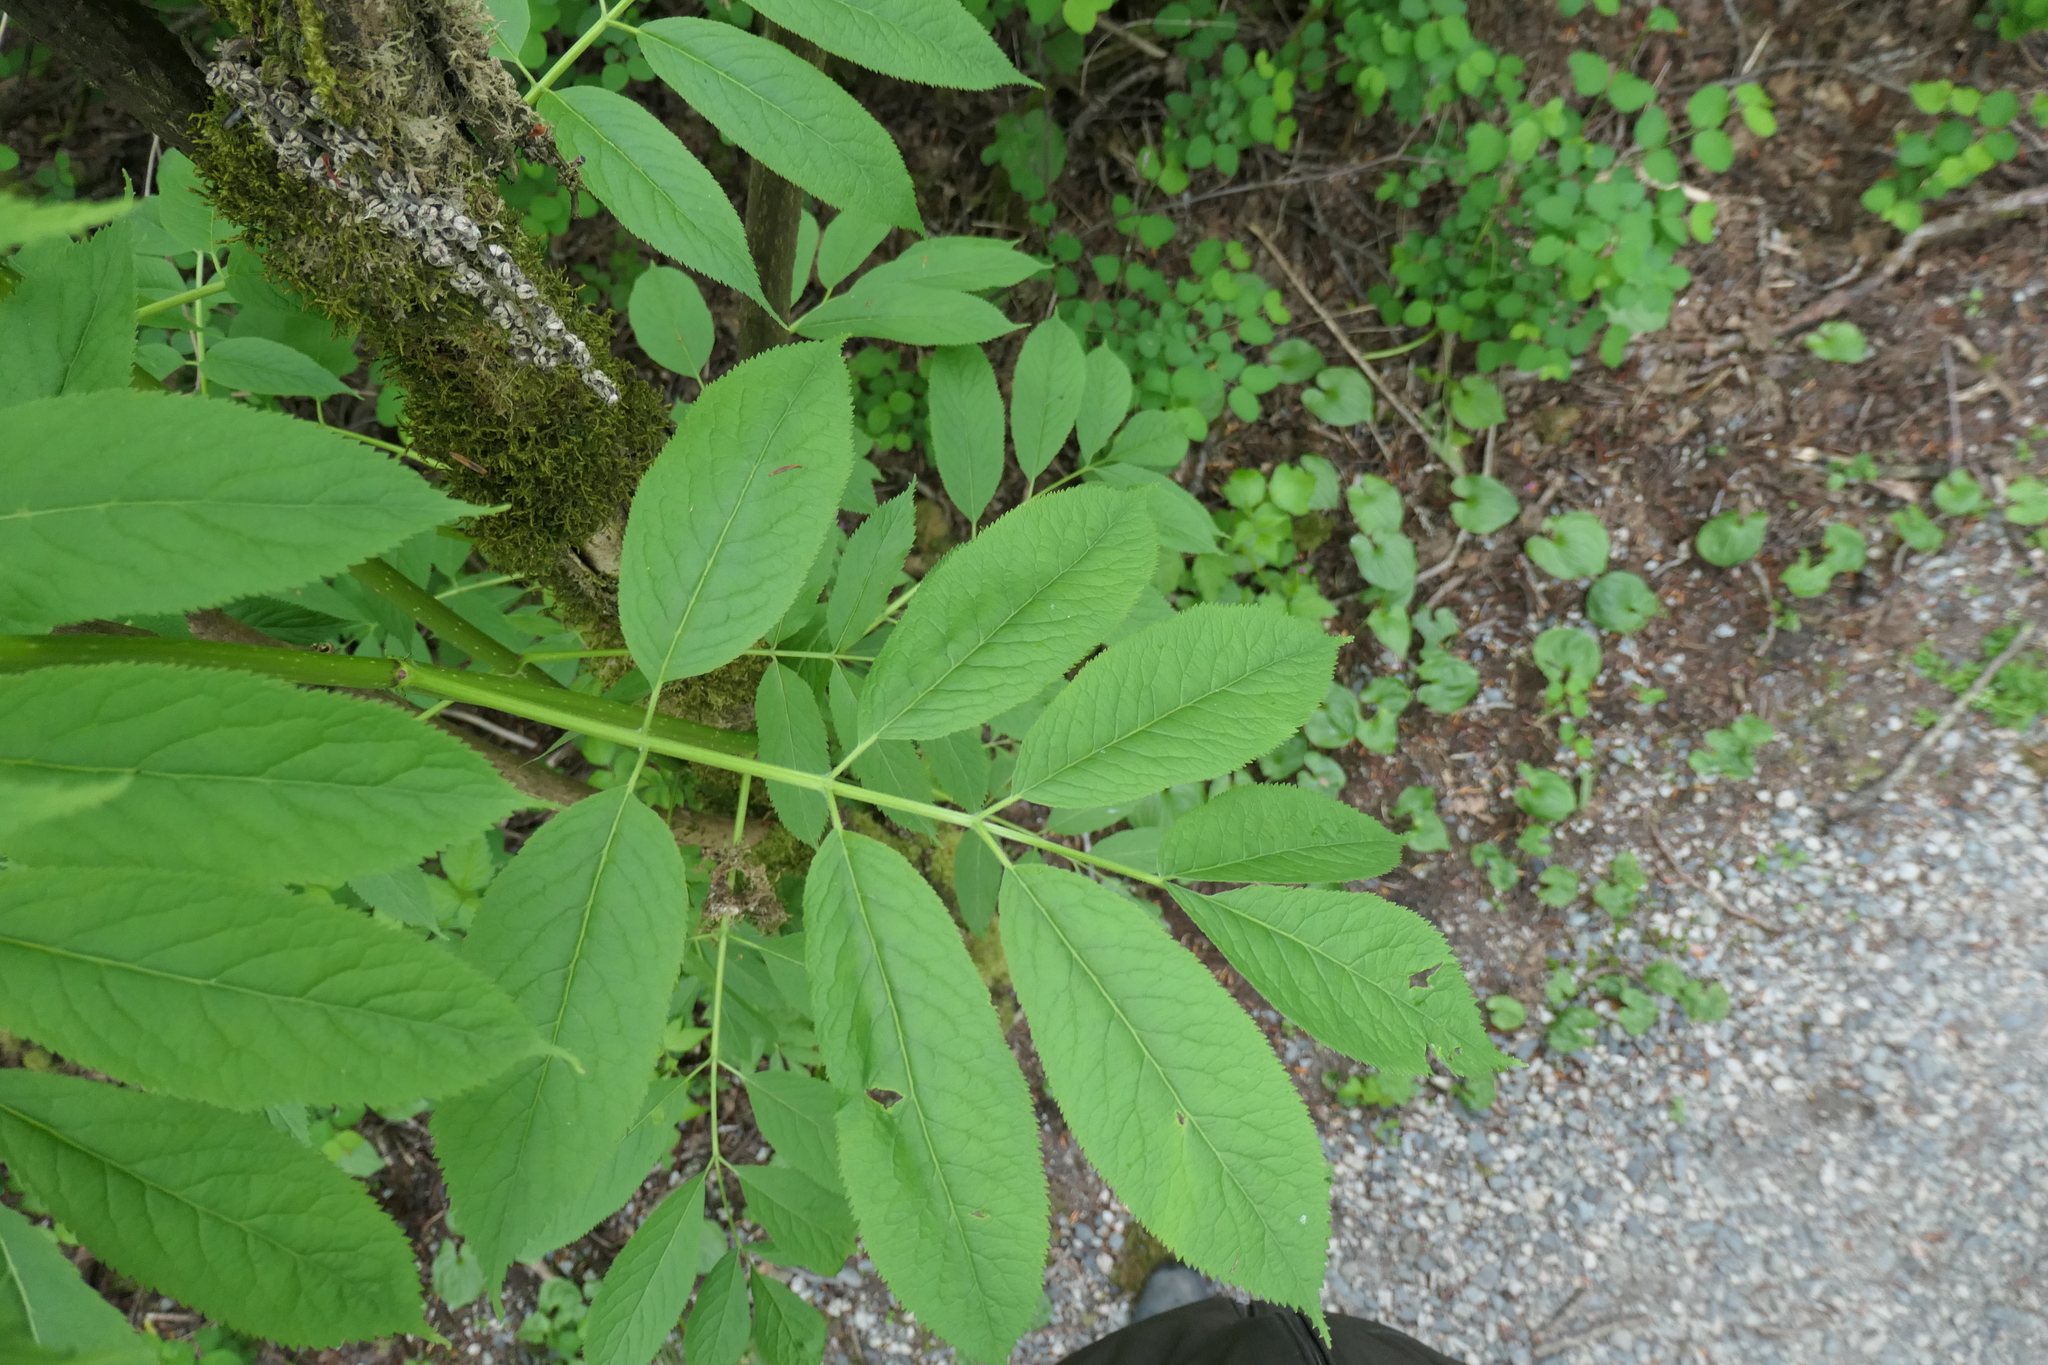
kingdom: Plantae
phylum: Tracheophyta
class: Magnoliopsida
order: Dipsacales
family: Viburnaceae
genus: Sambucus
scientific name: Sambucus racemosa
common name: Red-berried elder
